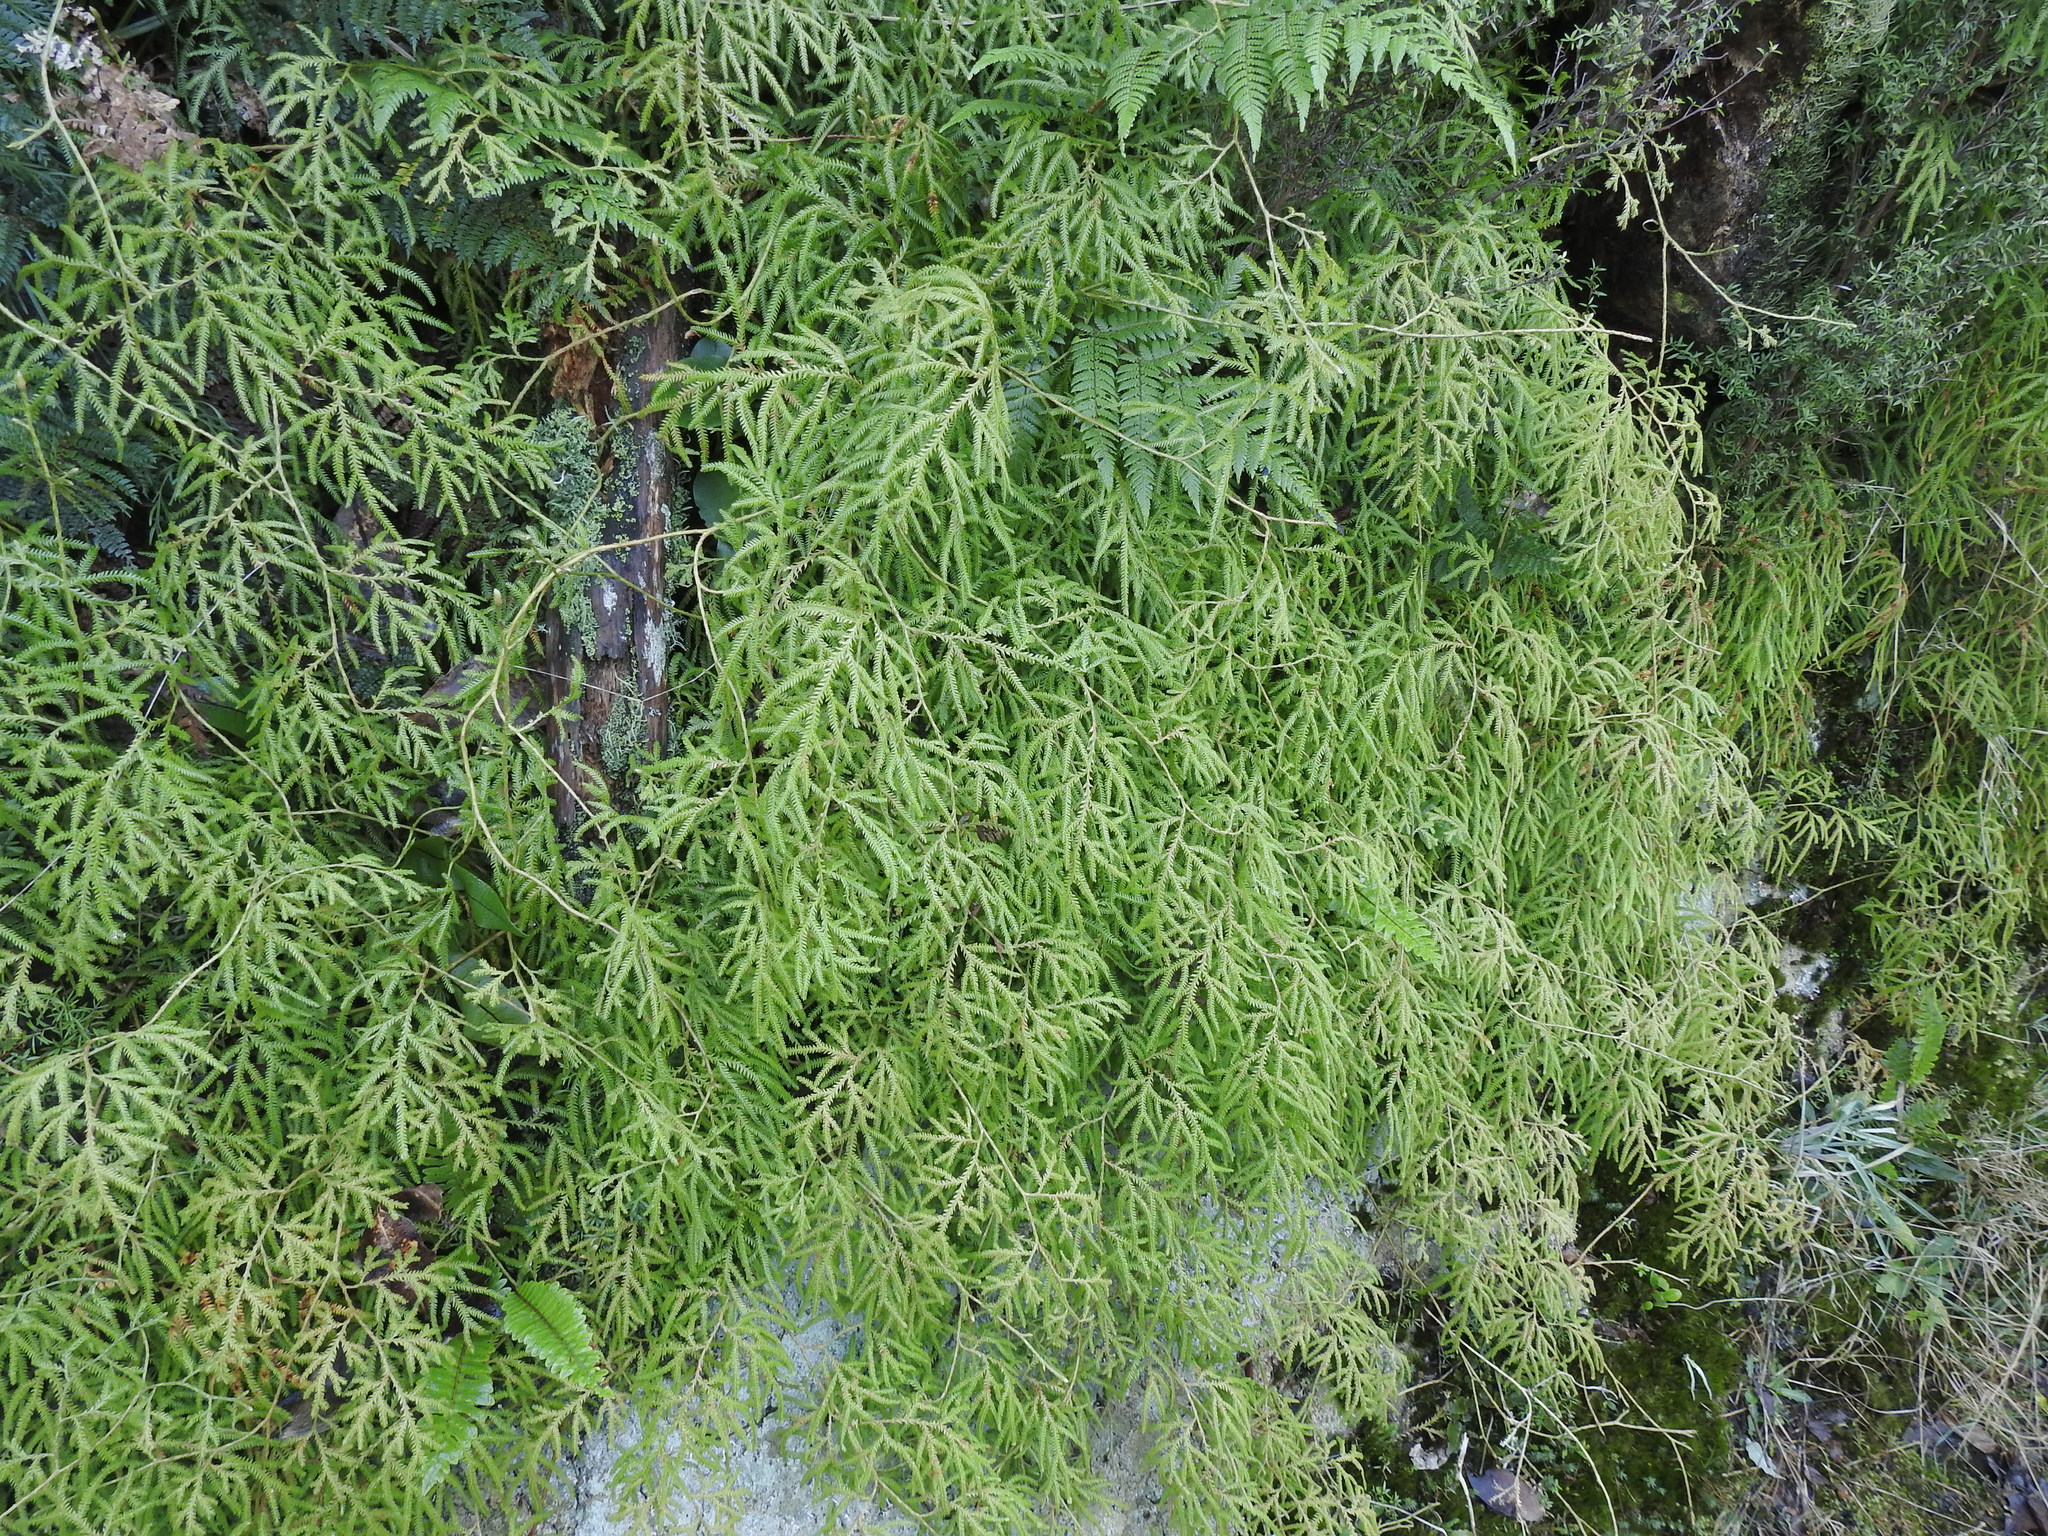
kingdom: Plantae
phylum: Tracheophyta
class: Lycopodiopsida
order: Lycopodiales
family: Lycopodiaceae
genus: Lycopodium
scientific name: Lycopodium volubile
